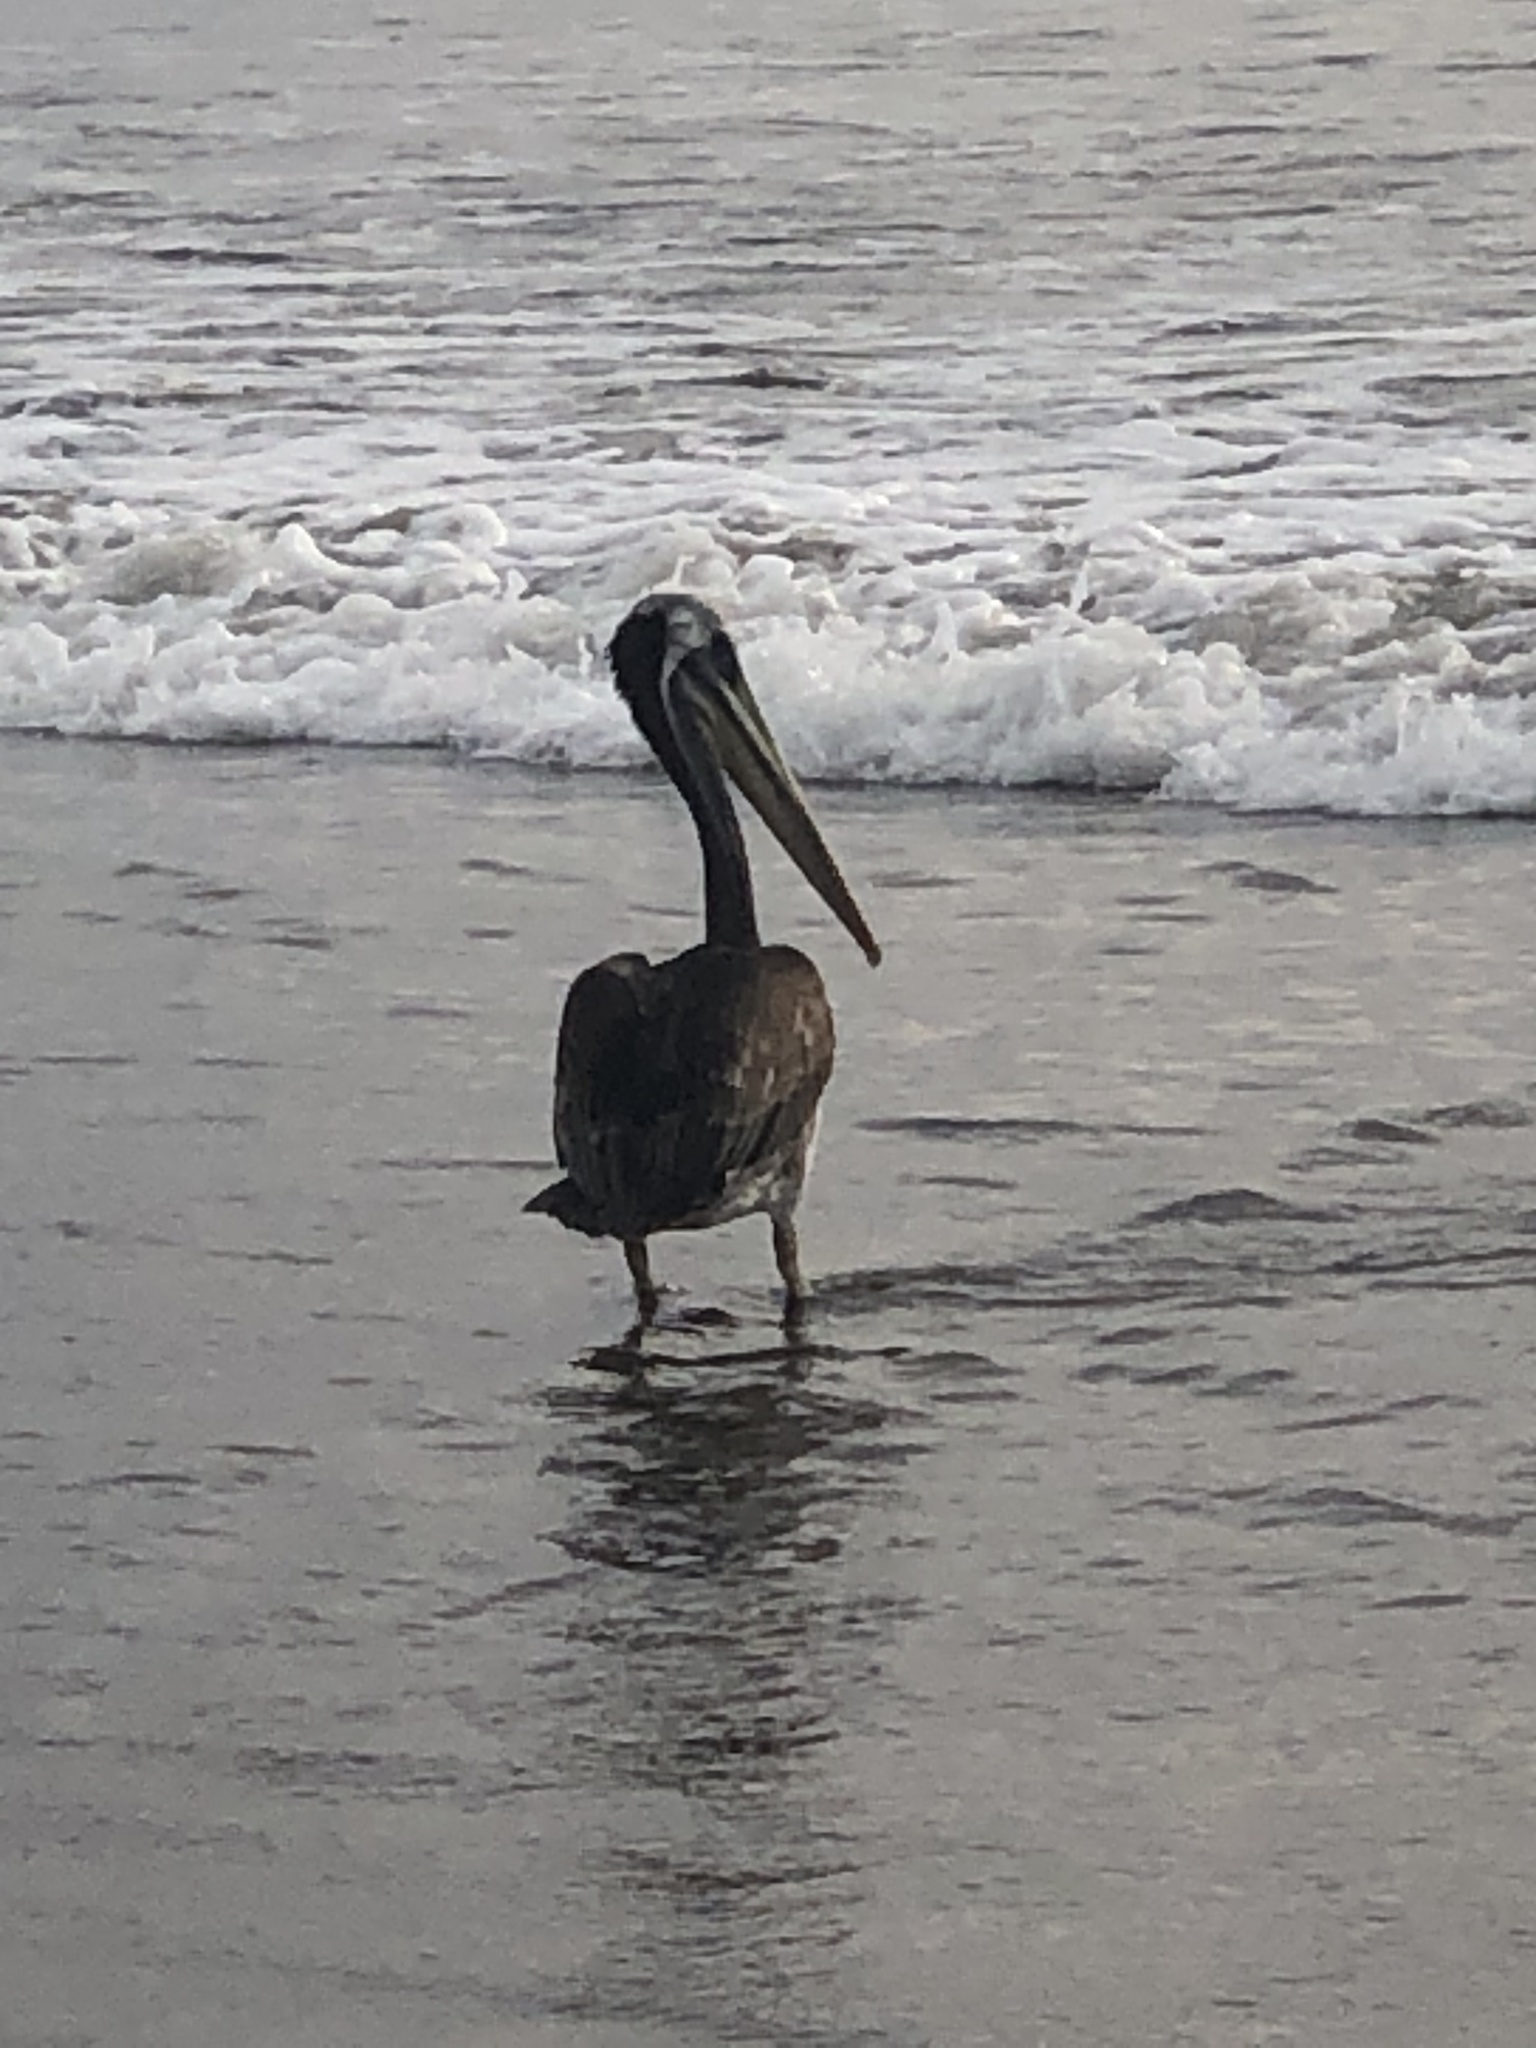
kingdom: Animalia
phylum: Chordata
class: Aves
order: Pelecaniformes
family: Pelecanidae
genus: Pelecanus
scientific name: Pelecanus thagus
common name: Peruvian pelican
